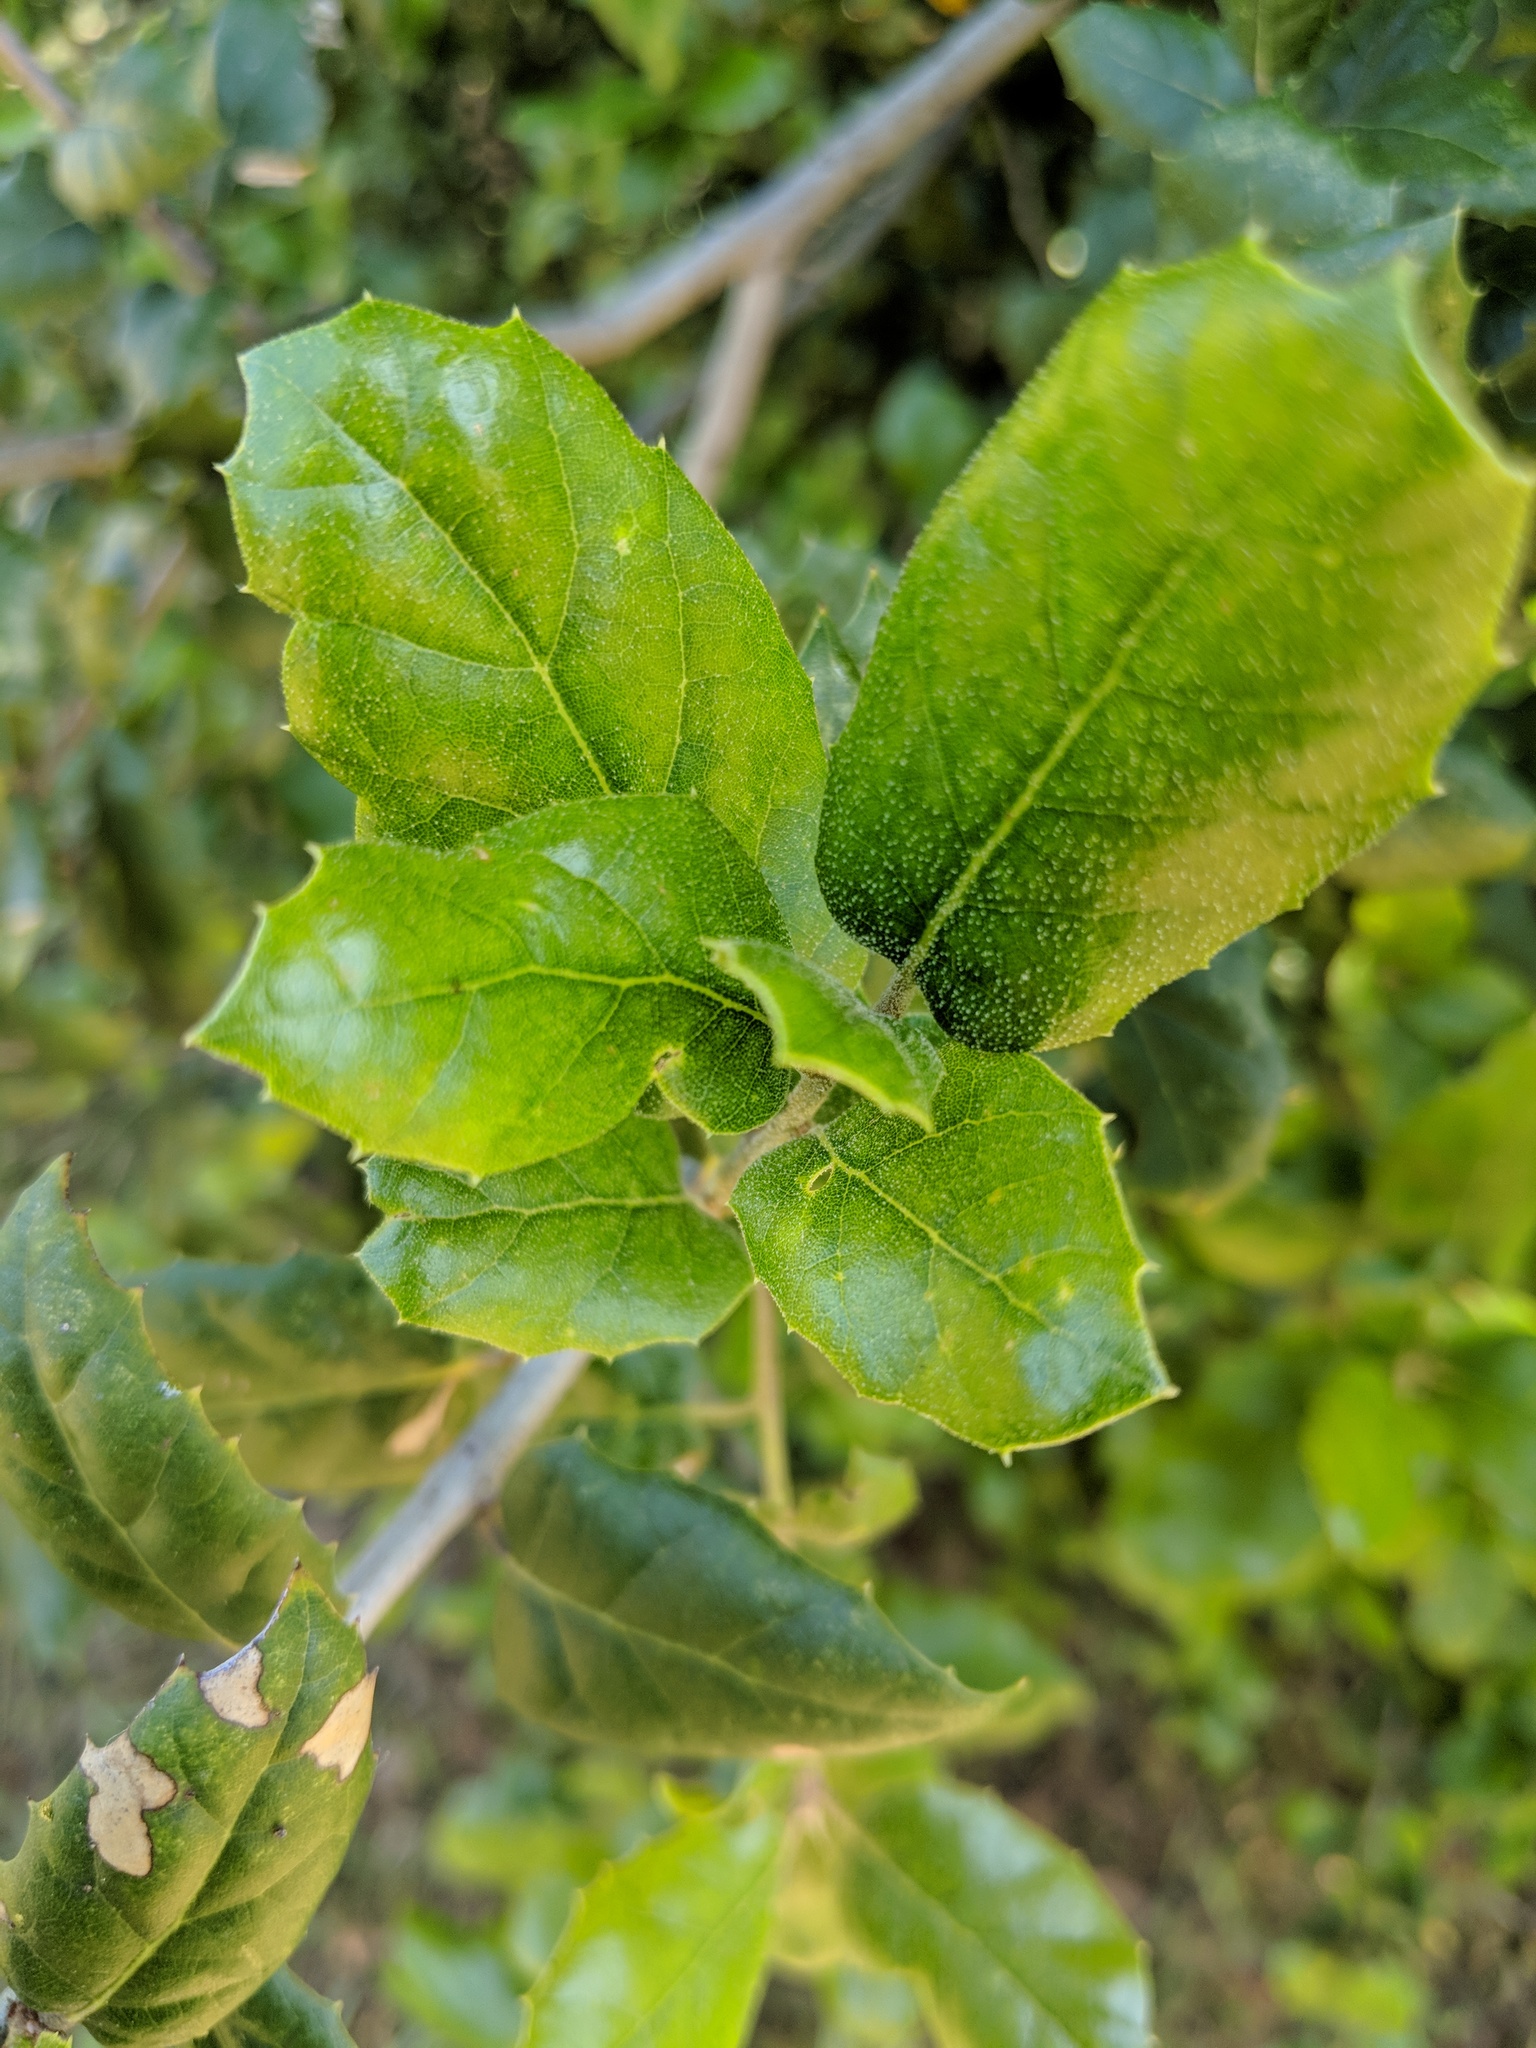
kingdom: Plantae
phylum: Tracheophyta
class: Magnoliopsida
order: Fagales
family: Fagaceae
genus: Quercus
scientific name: Quercus agrifolia
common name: California live oak
